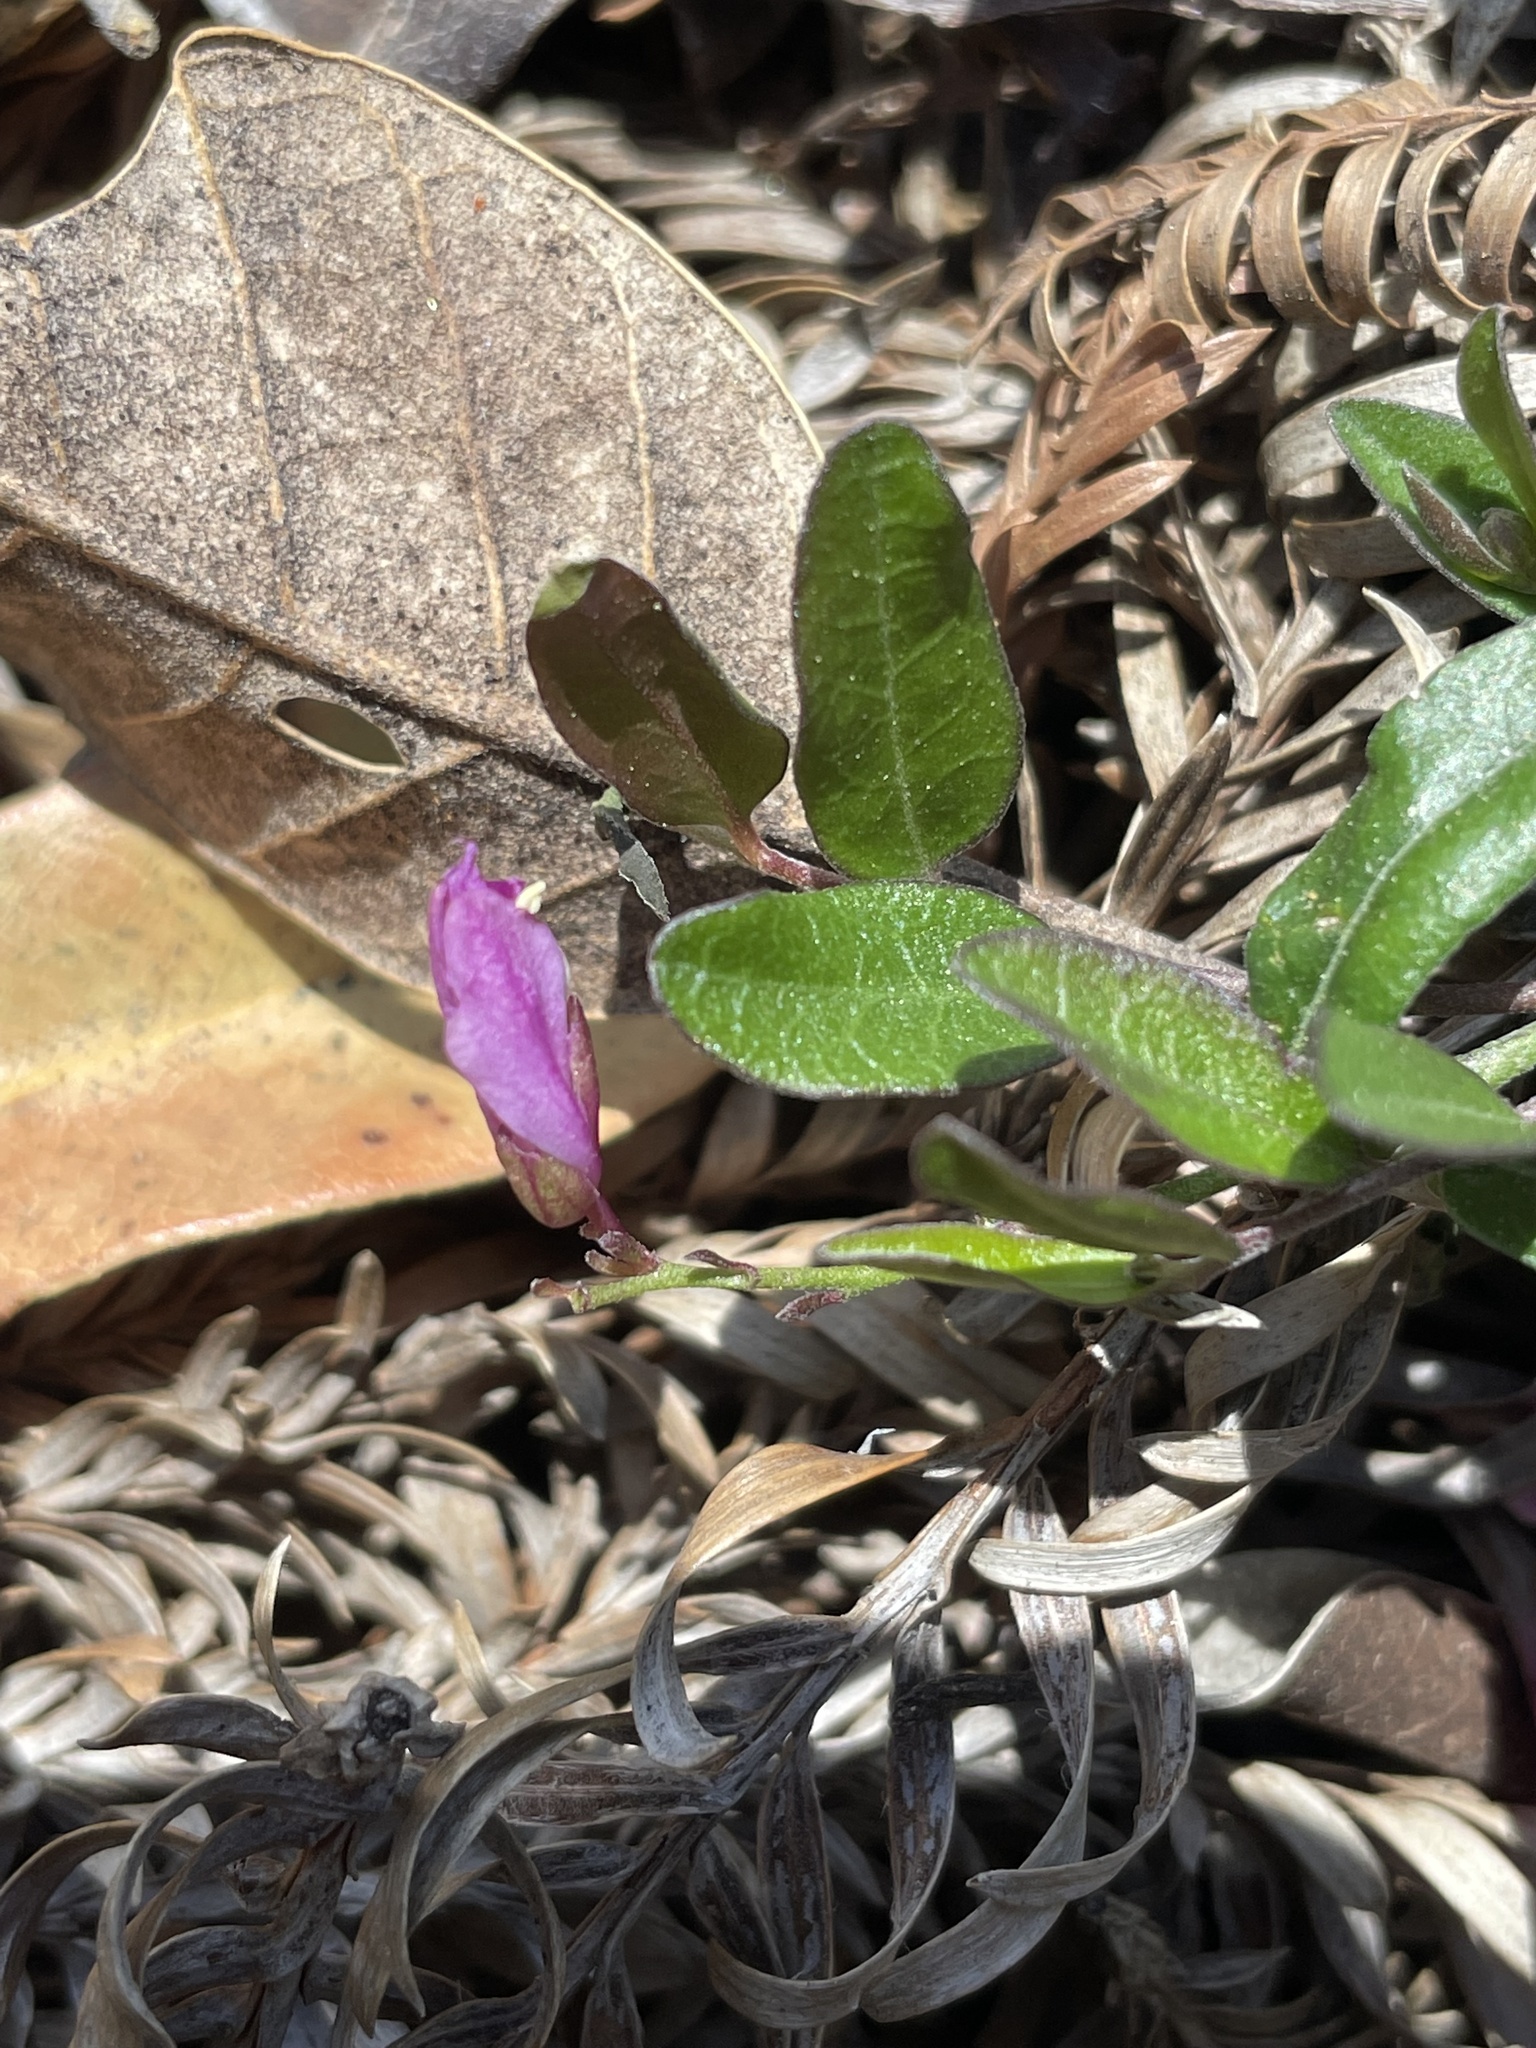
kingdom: Plantae
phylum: Tracheophyta
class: Magnoliopsida
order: Fabales
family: Polygalaceae
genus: Rhinotropis
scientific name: Rhinotropis californica
